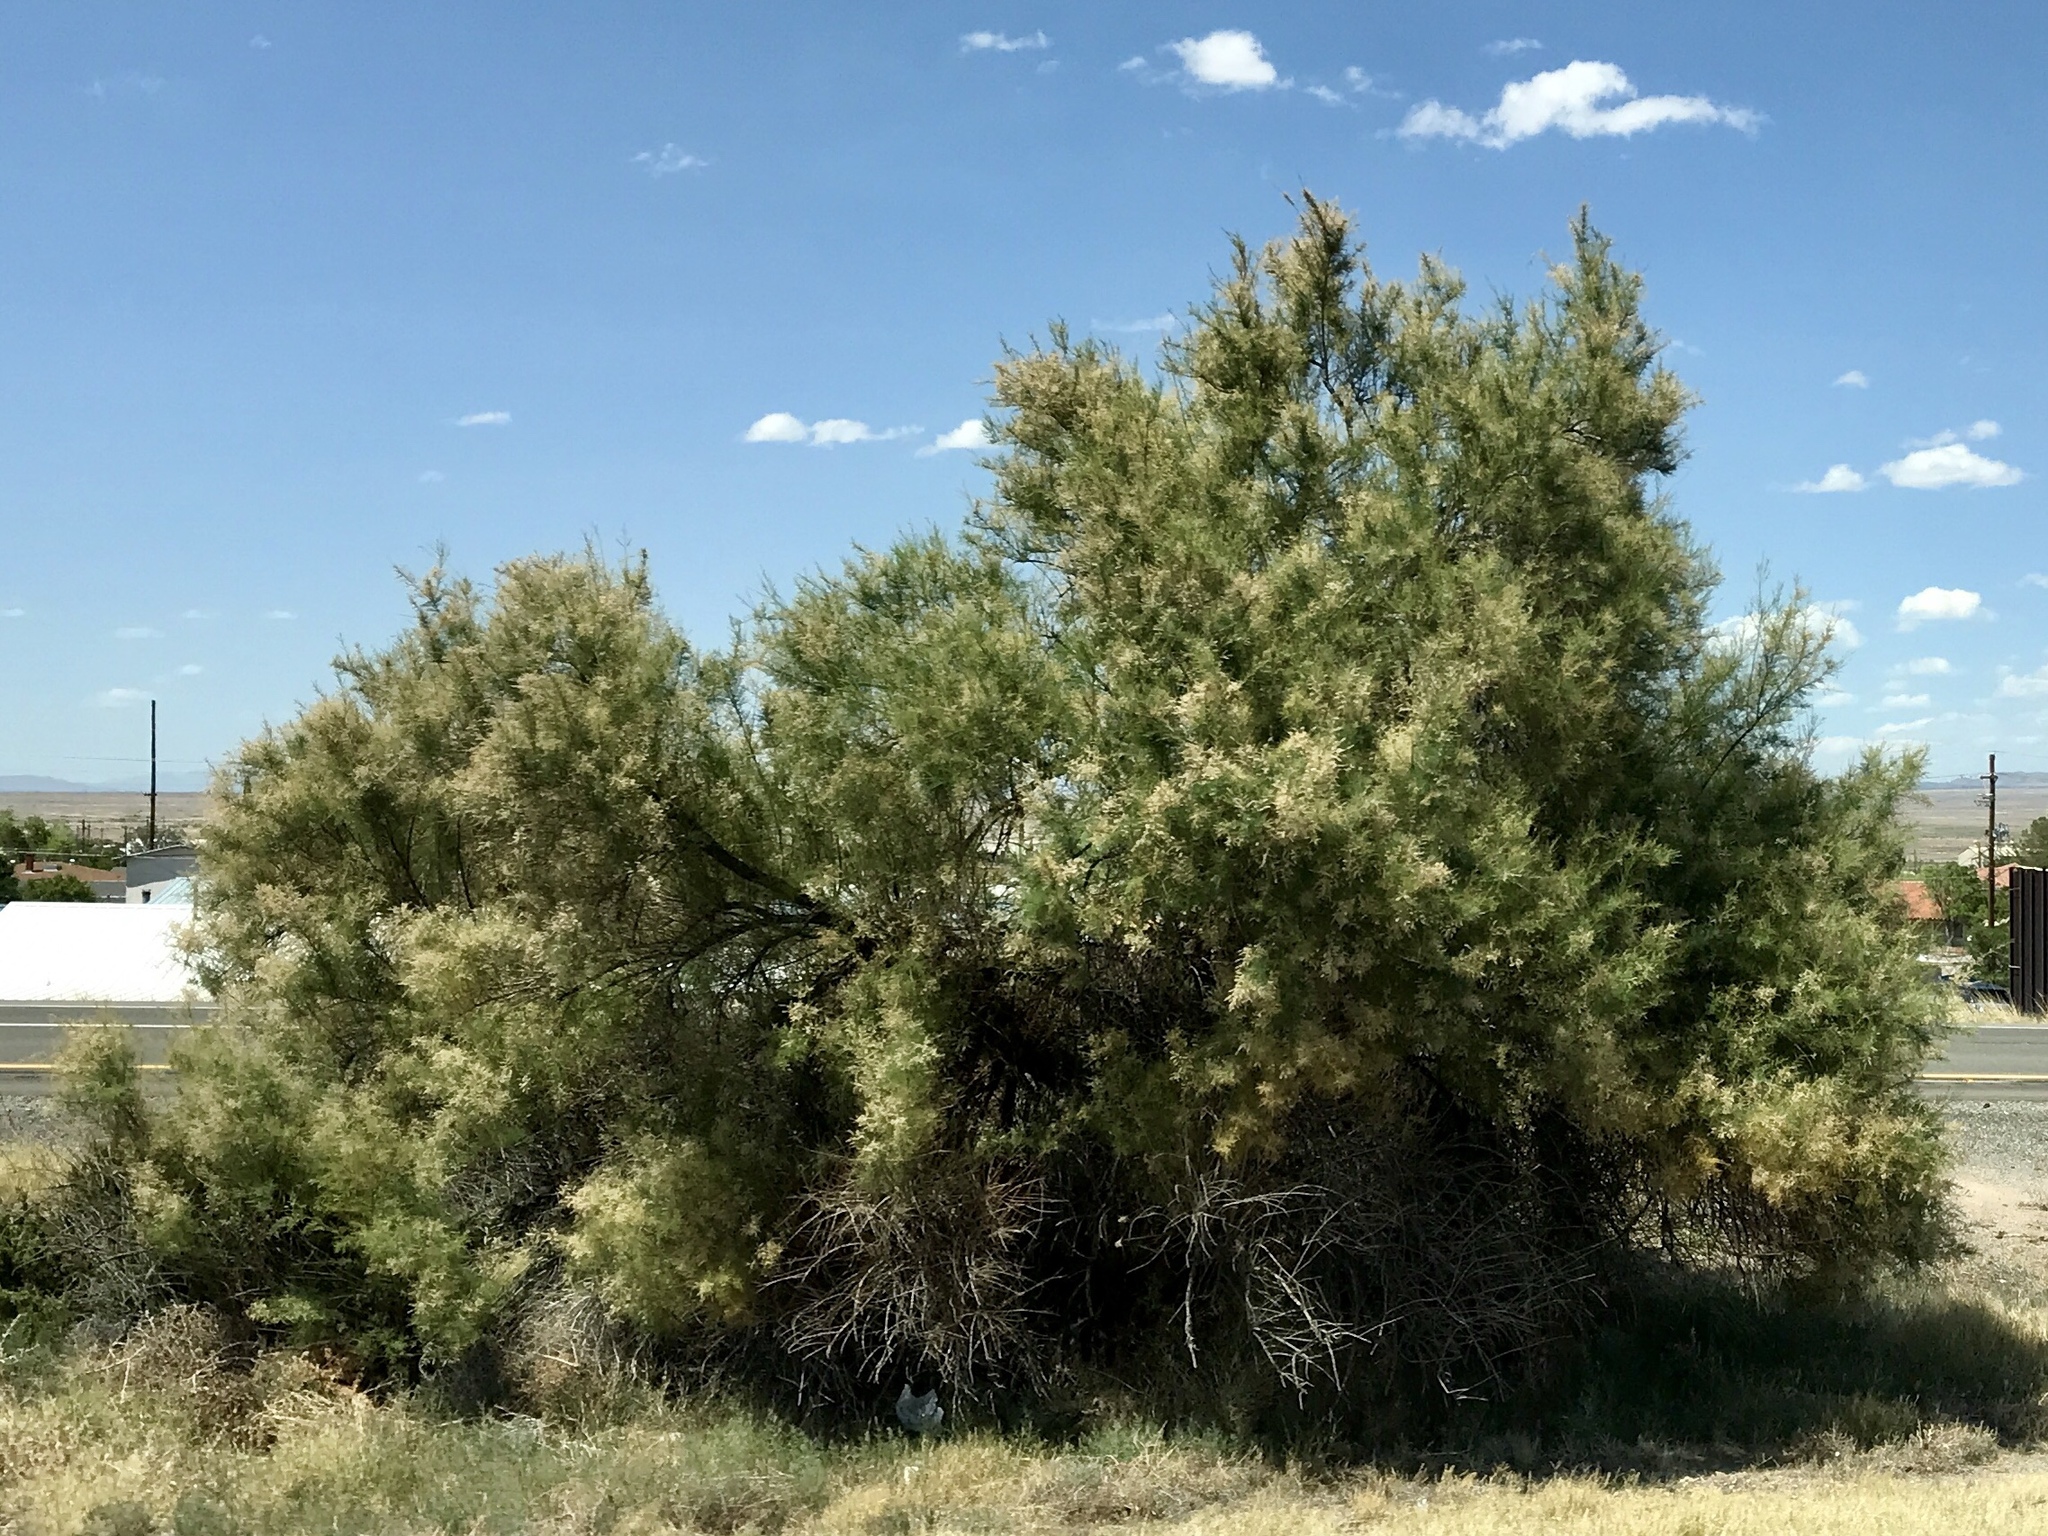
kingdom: Plantae
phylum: Tracheophyta
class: Magnoliopsida
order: Caryophyllales
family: Tamaricaceae
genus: Tamarix
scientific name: Tamarix ramosissima
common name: Pink tamarisk
